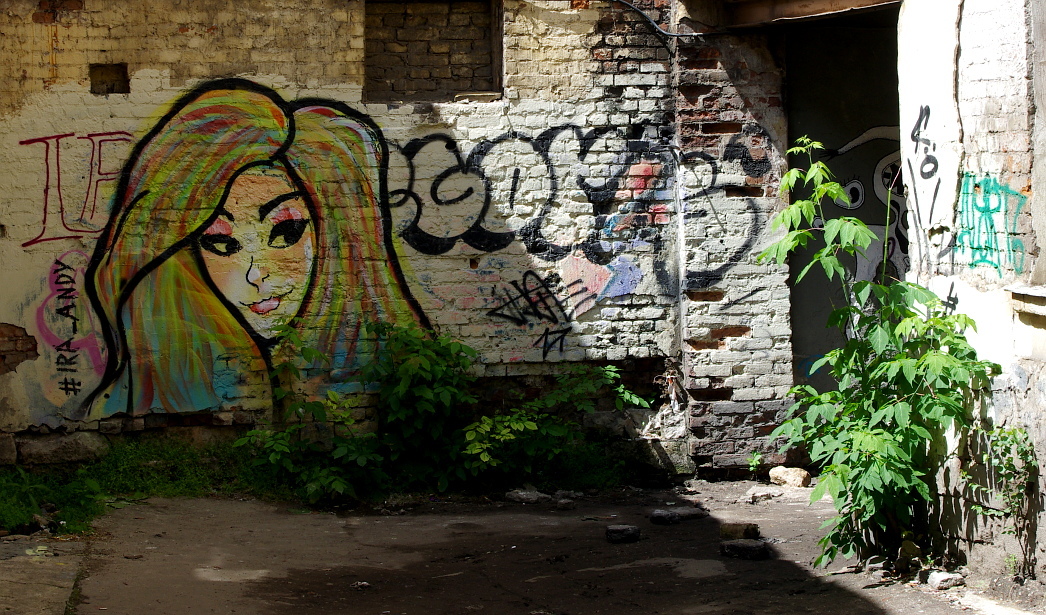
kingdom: Plantae
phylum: Tracheophyta
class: Magnoliopsida
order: Sapindales
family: Sapindaceae
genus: Acer
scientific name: Acer negundo
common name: Ashleaf maple
